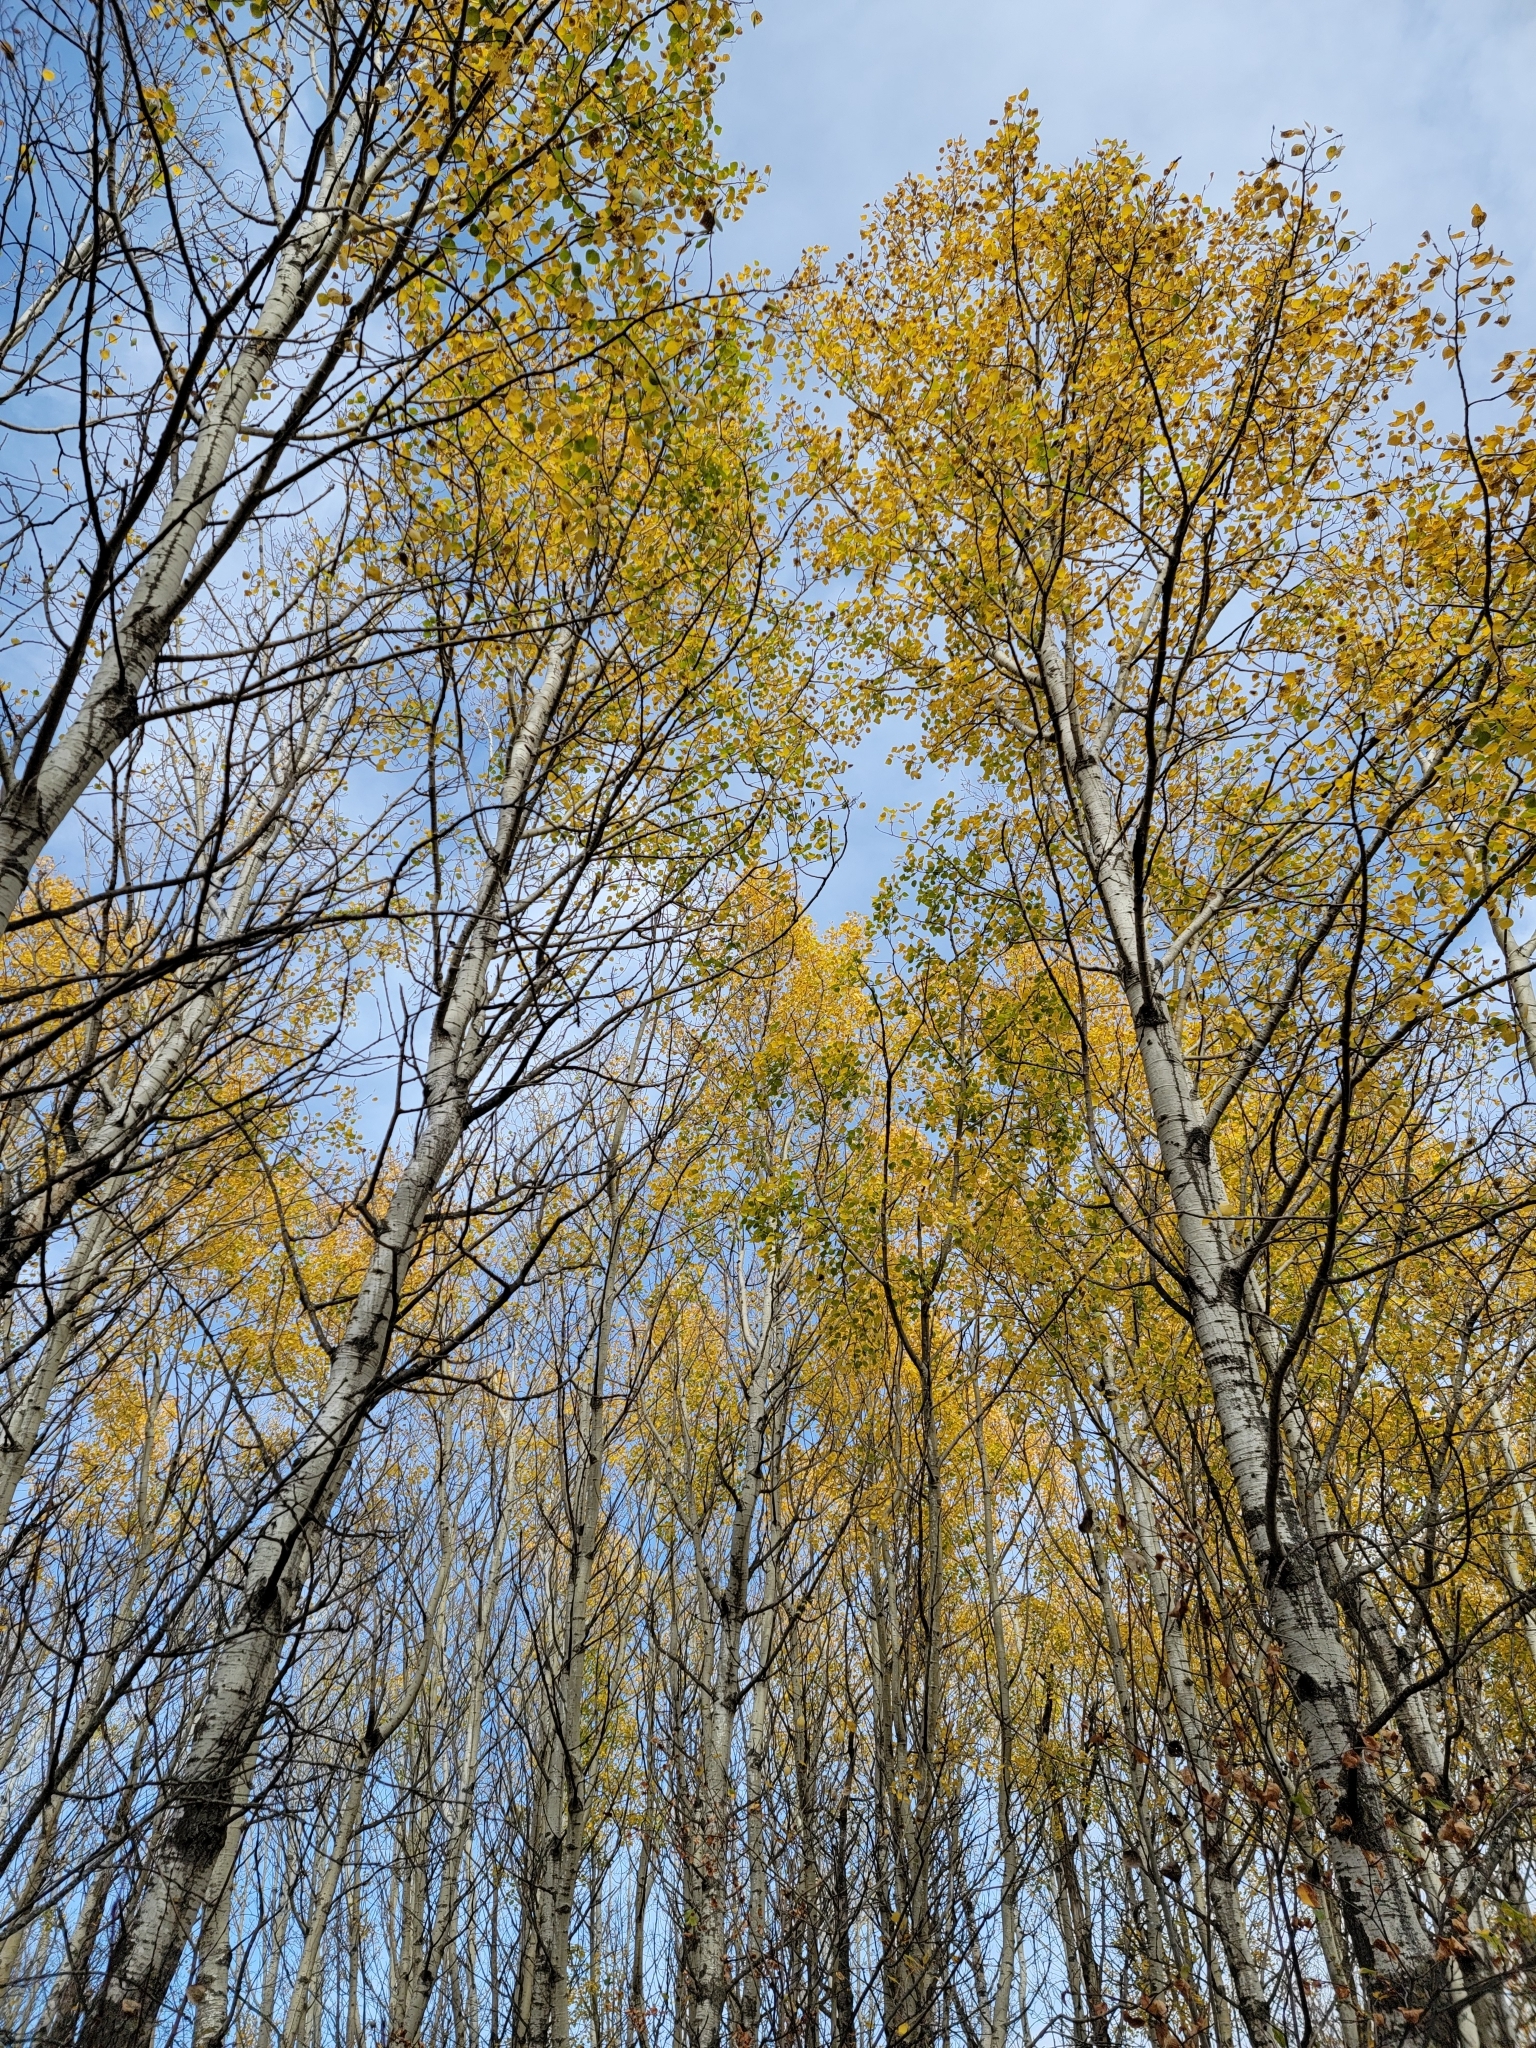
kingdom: Plantae
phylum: Tracheophyta
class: Magnoliopsida
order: Malpighiales
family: Salicaceae
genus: Populus
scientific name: Populus tremuloides
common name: Quaking aspen
